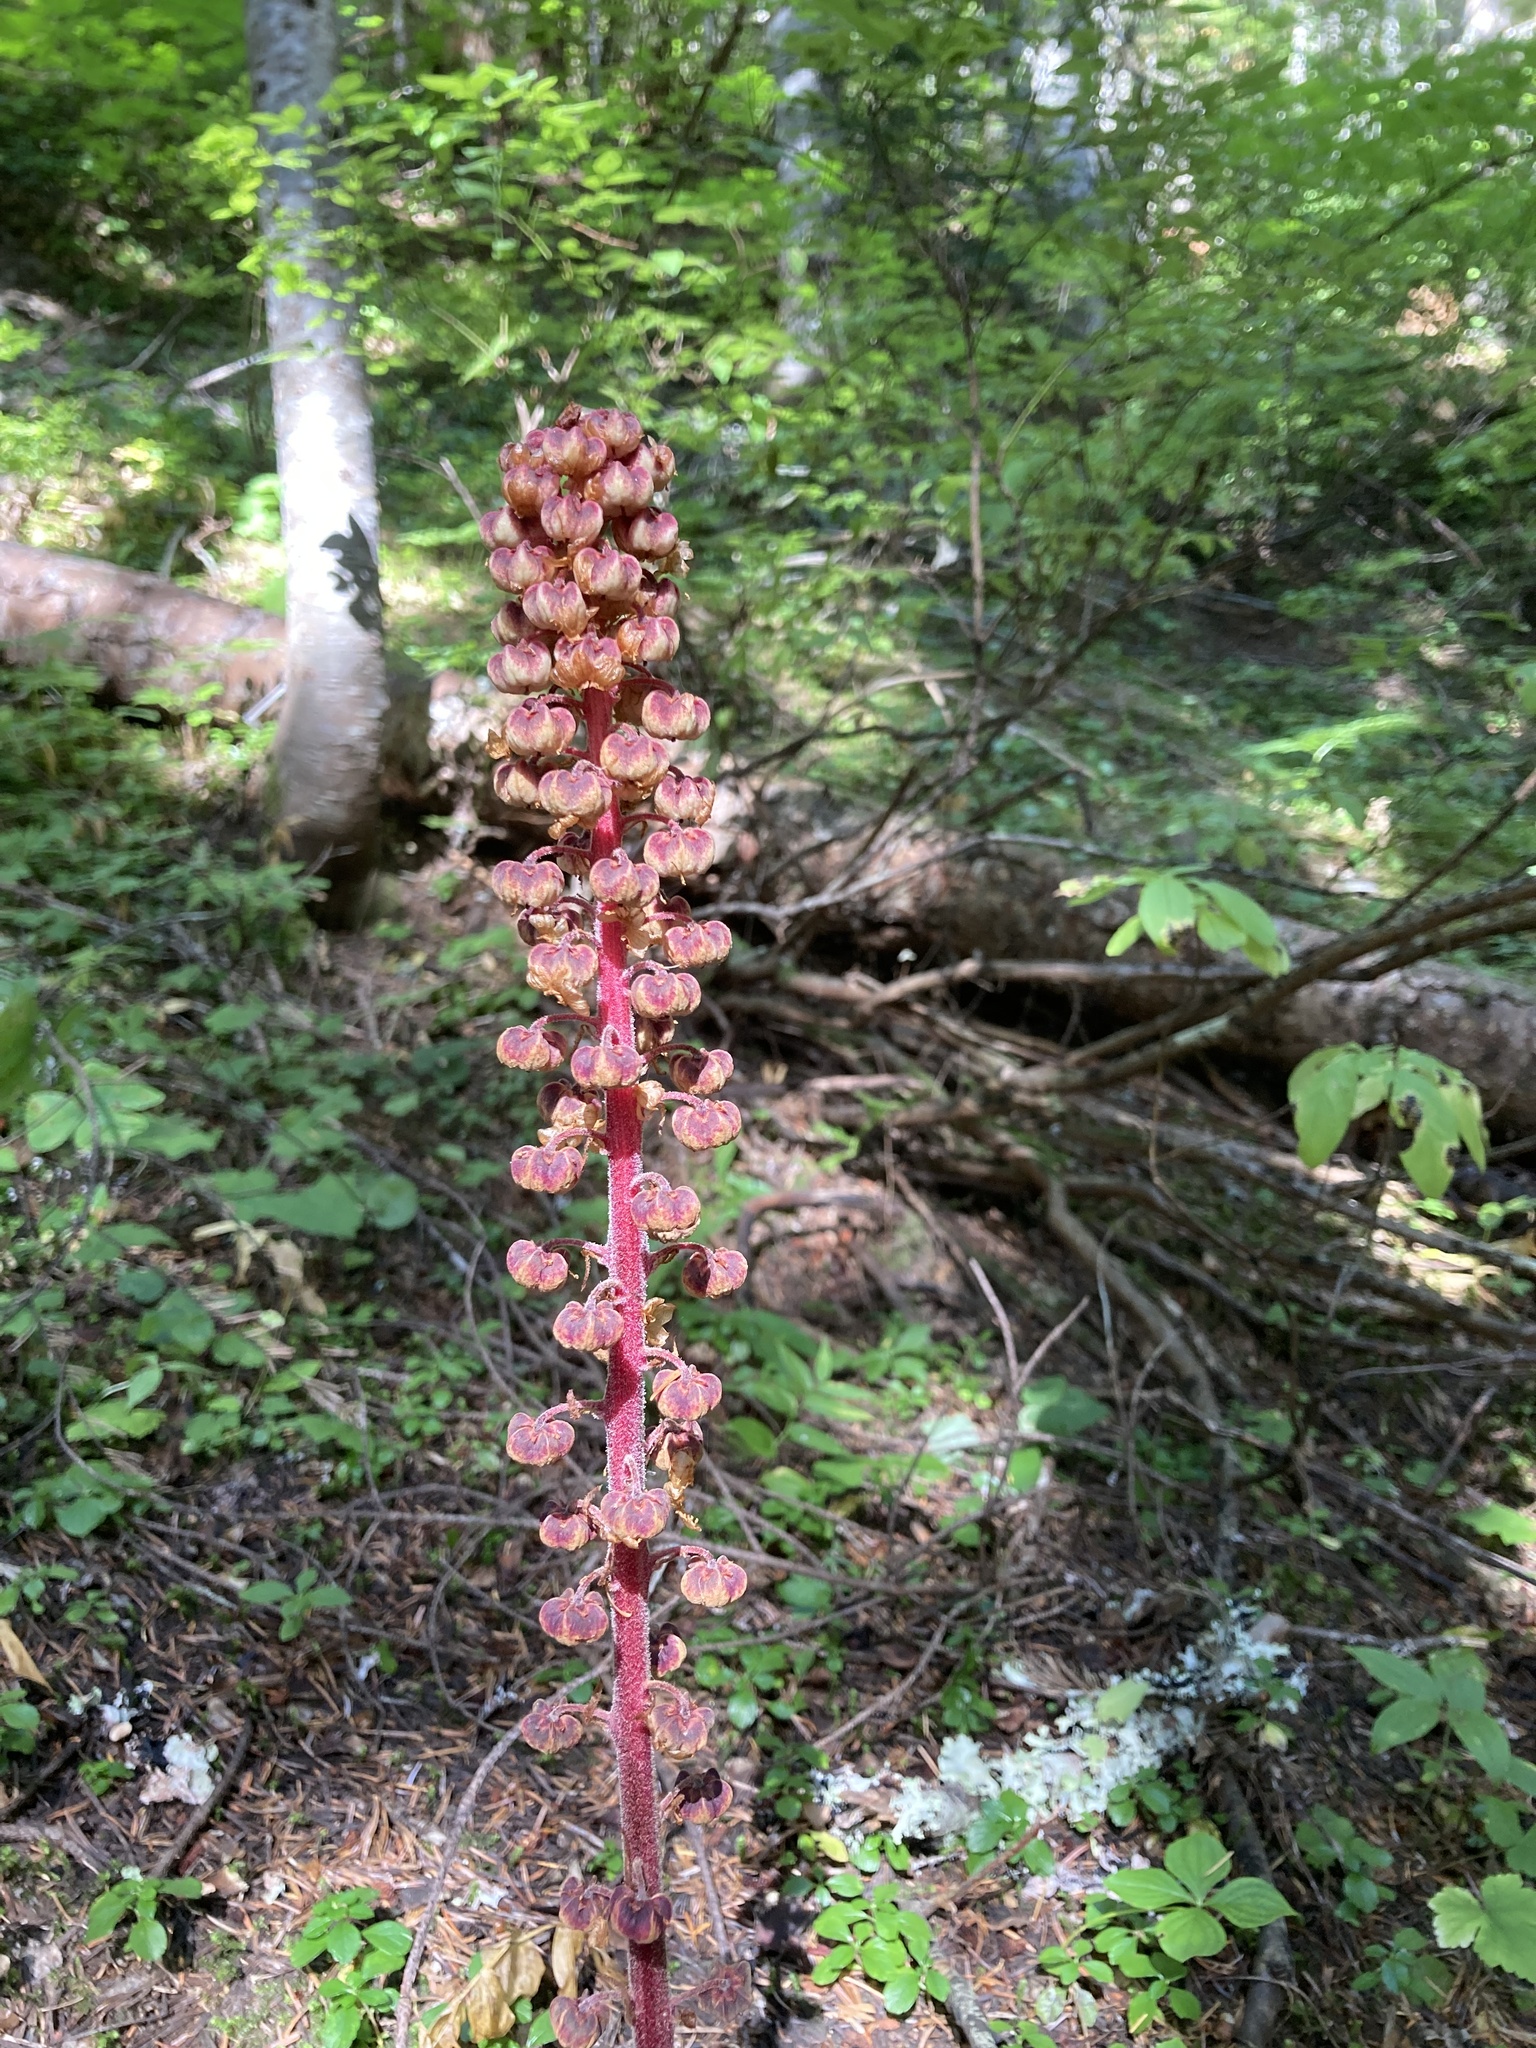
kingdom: Plantae
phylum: Tracheophyta
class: Magnoliopsida
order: Ericales
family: Ericaceae
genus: Pterospora
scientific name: Pterospora andromedea
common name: Giant bird's-nest
